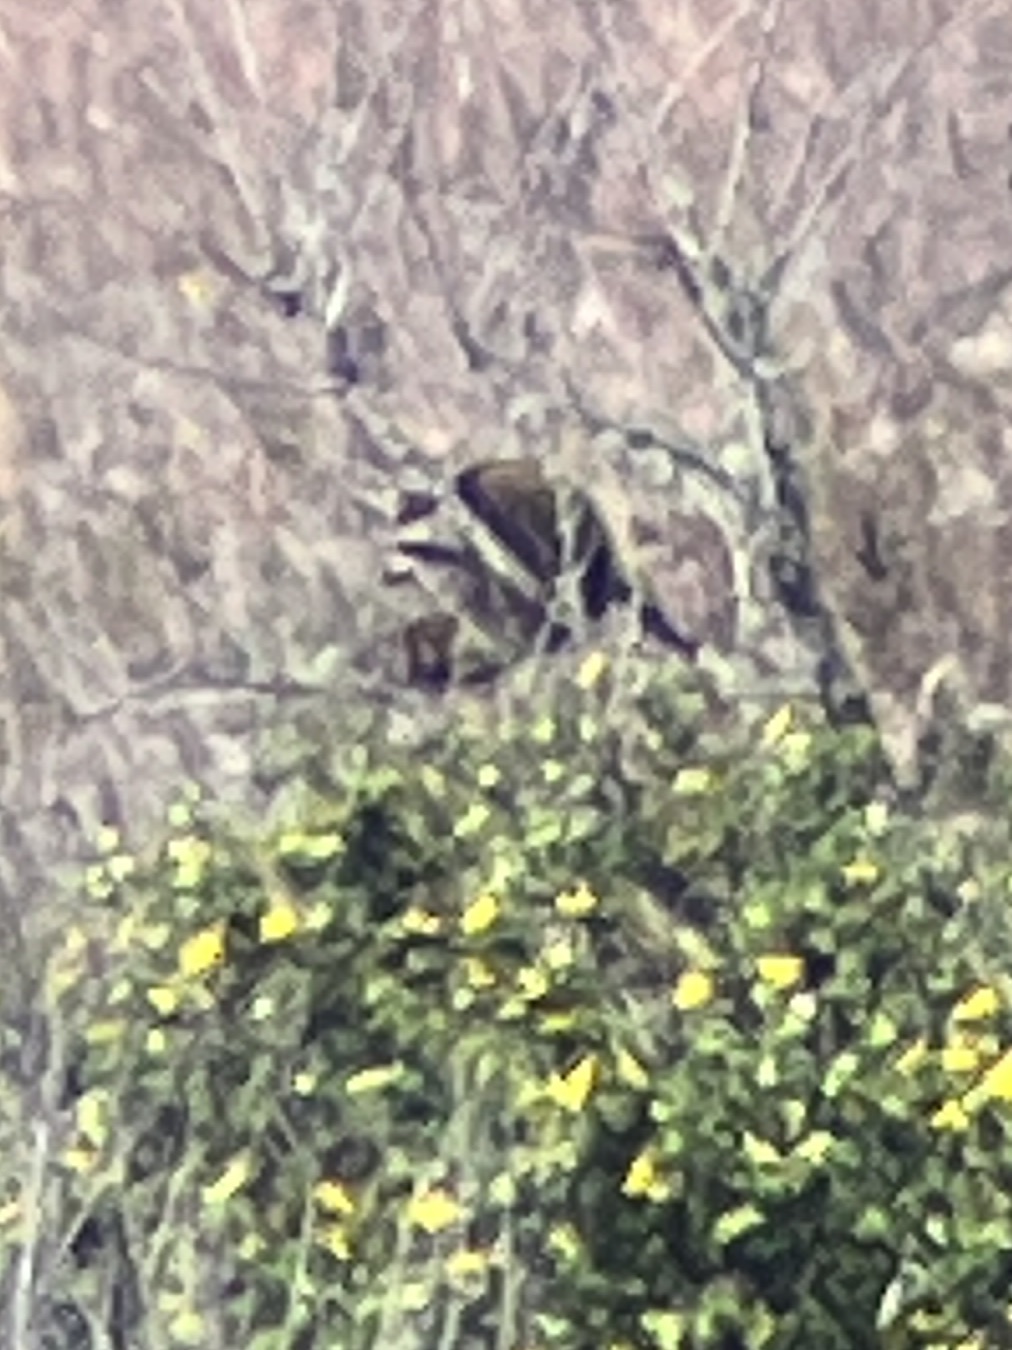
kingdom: Animalia
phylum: Chordata
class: Mammalia
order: Carnivora
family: Procyonidae
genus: Procyon
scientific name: Procyon lotor
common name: Raccoon
